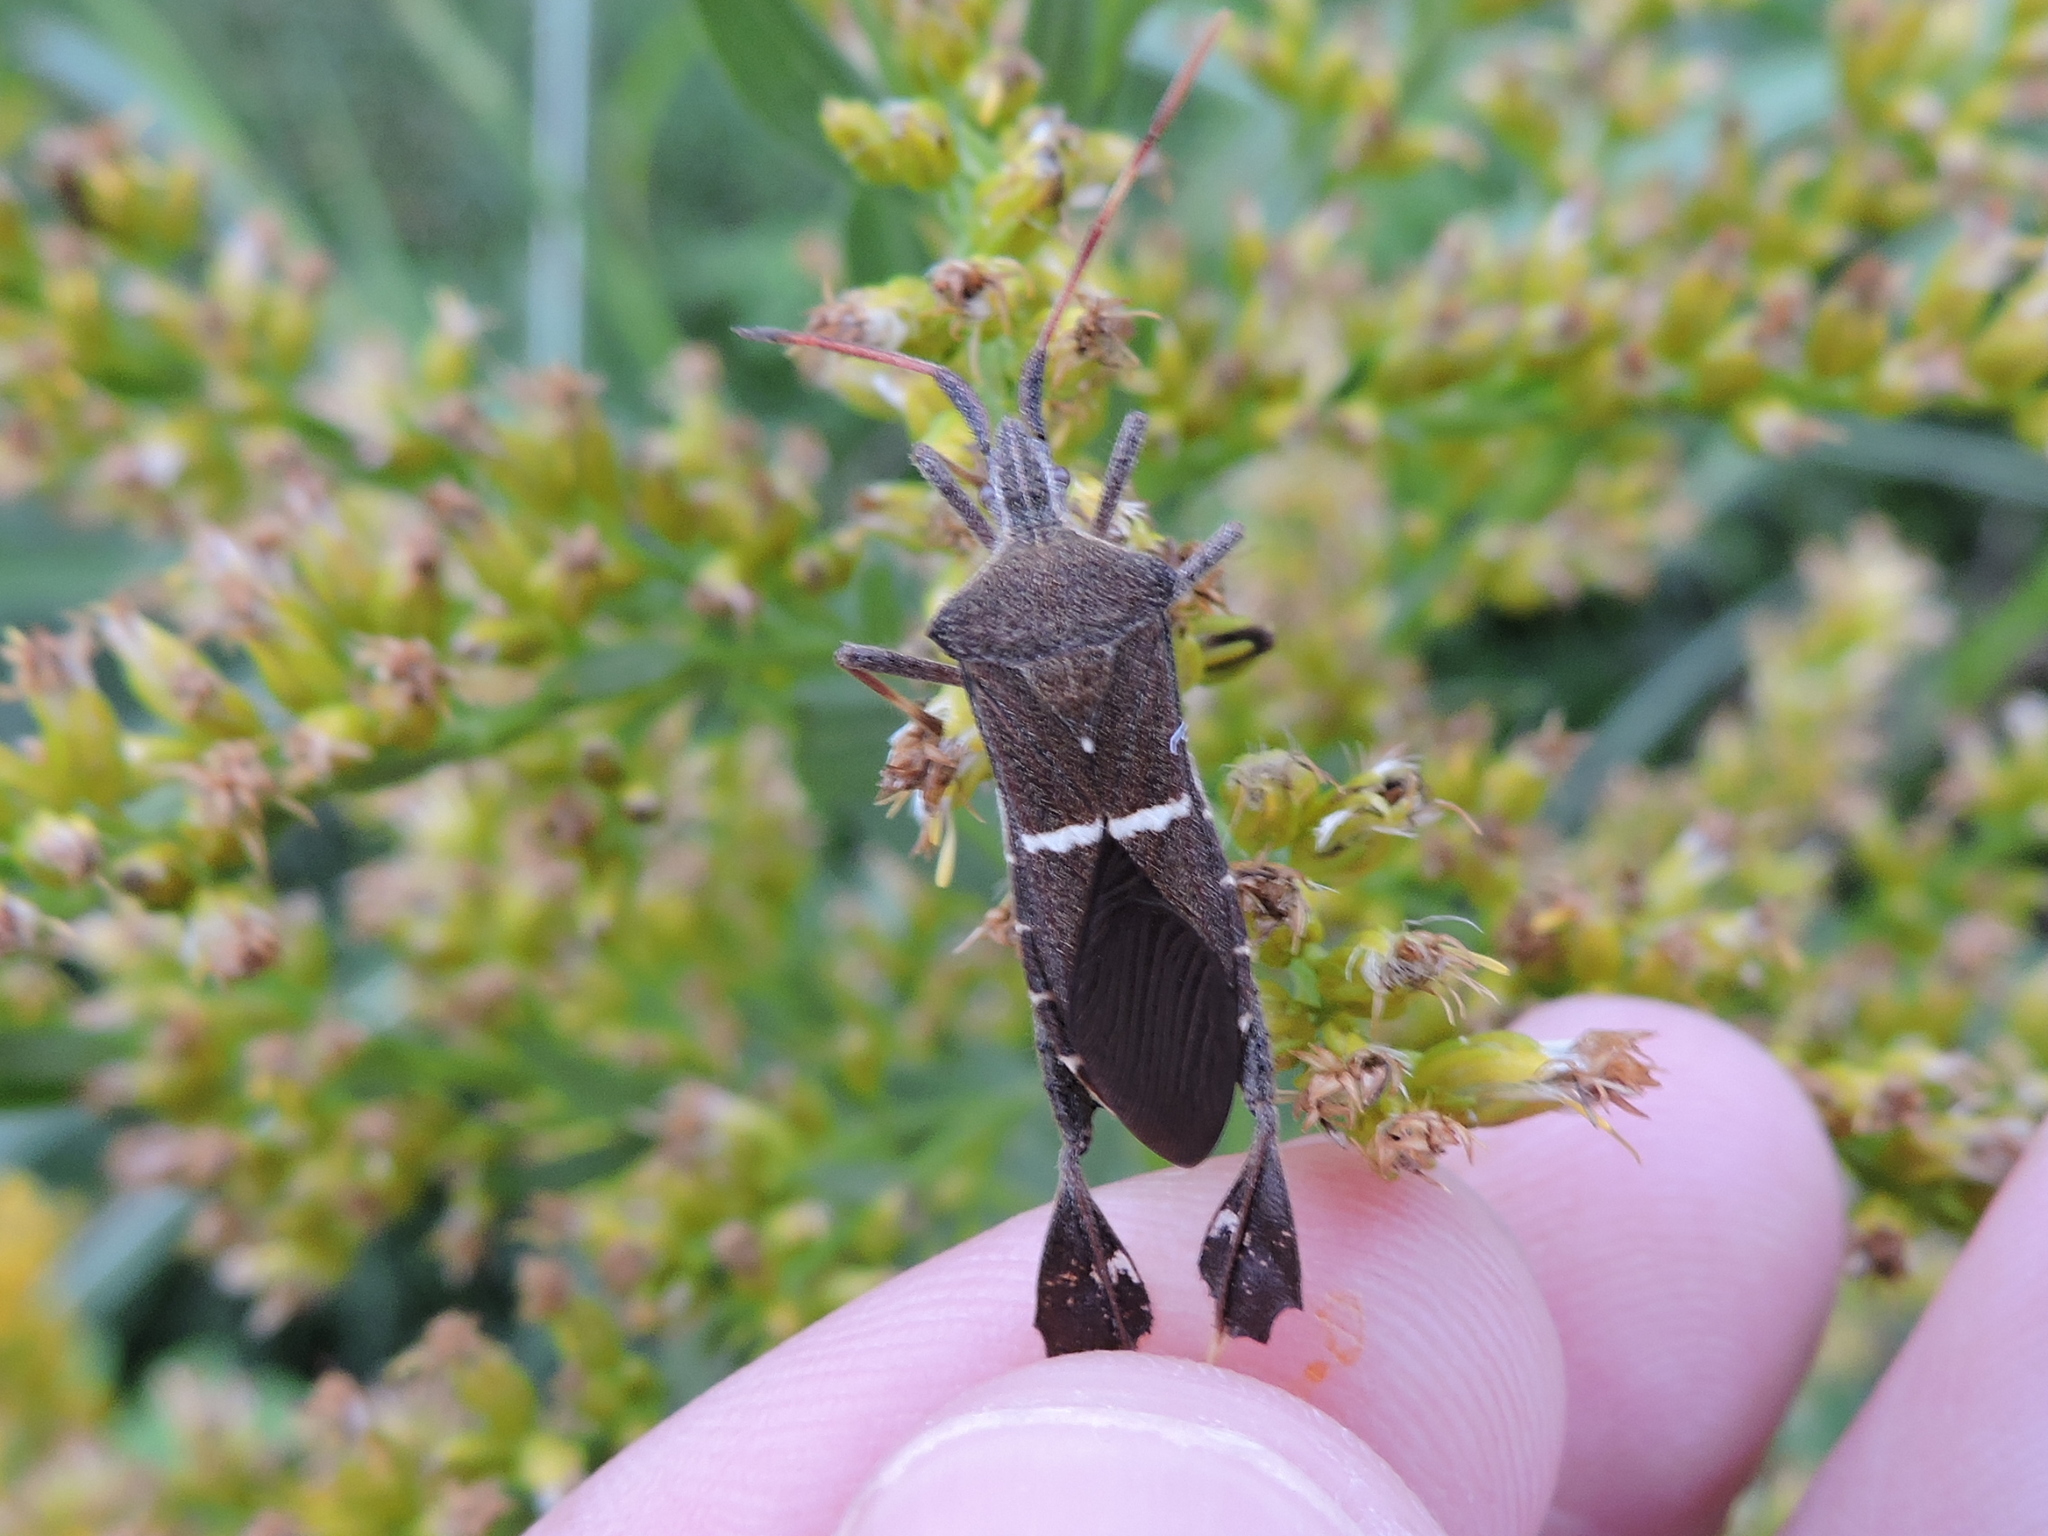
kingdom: Animalia
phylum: Arthropoda
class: Insecta
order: Hemiptera
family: Coreidae
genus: Leptoglossus
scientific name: Leptoglossus phyllopus
